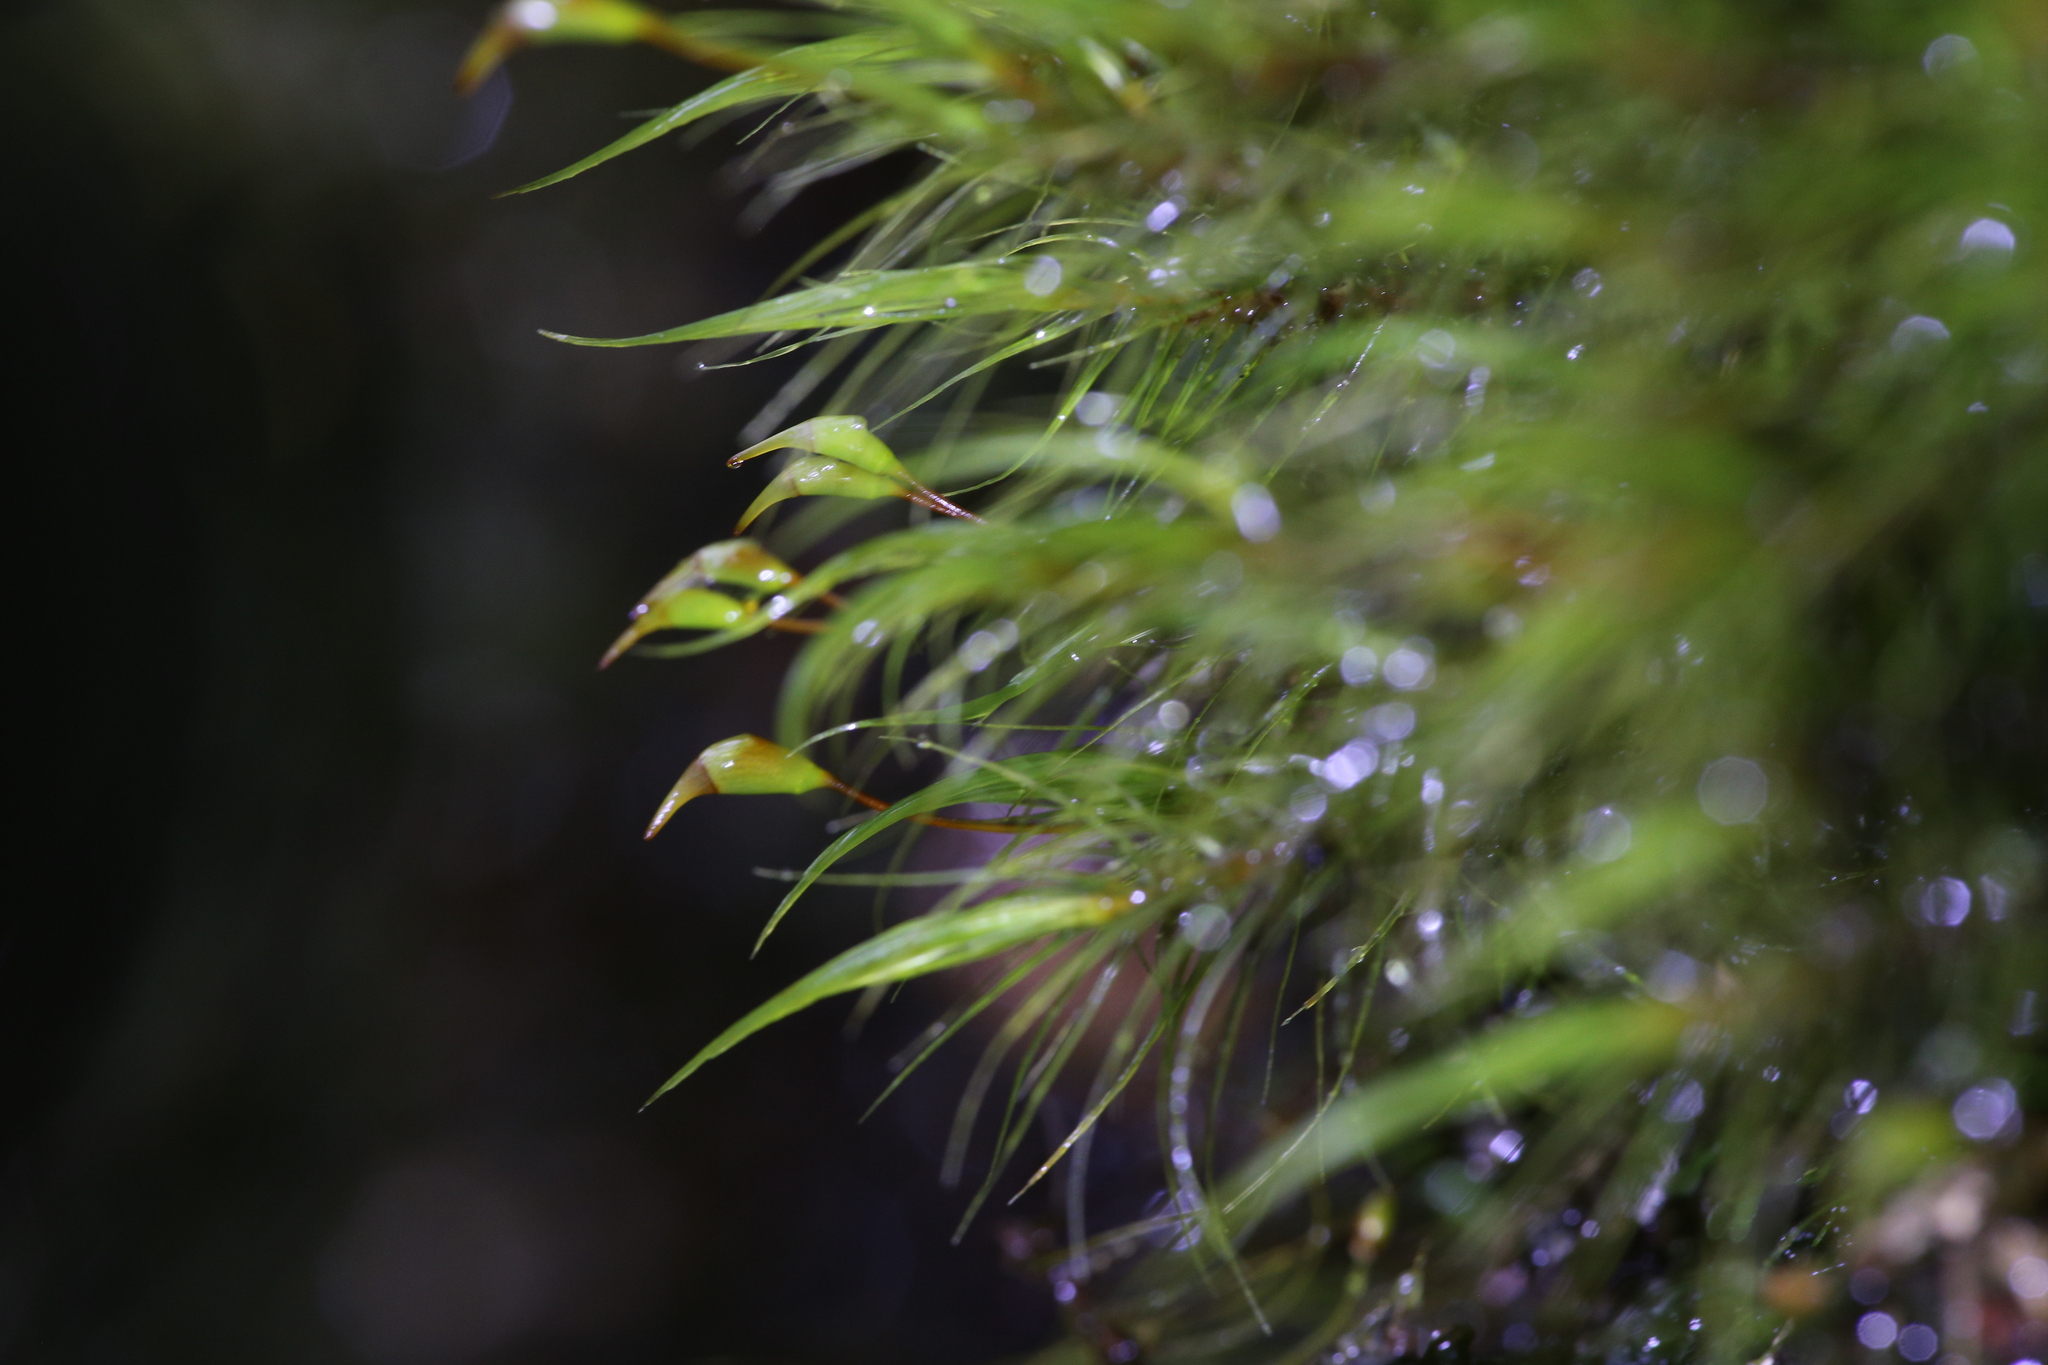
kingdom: Plantae
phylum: Bryophyta
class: Bryopsida
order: Dicranales
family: Dicranaceae
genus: Dicranoloma
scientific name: Dicranoloma menziesii
